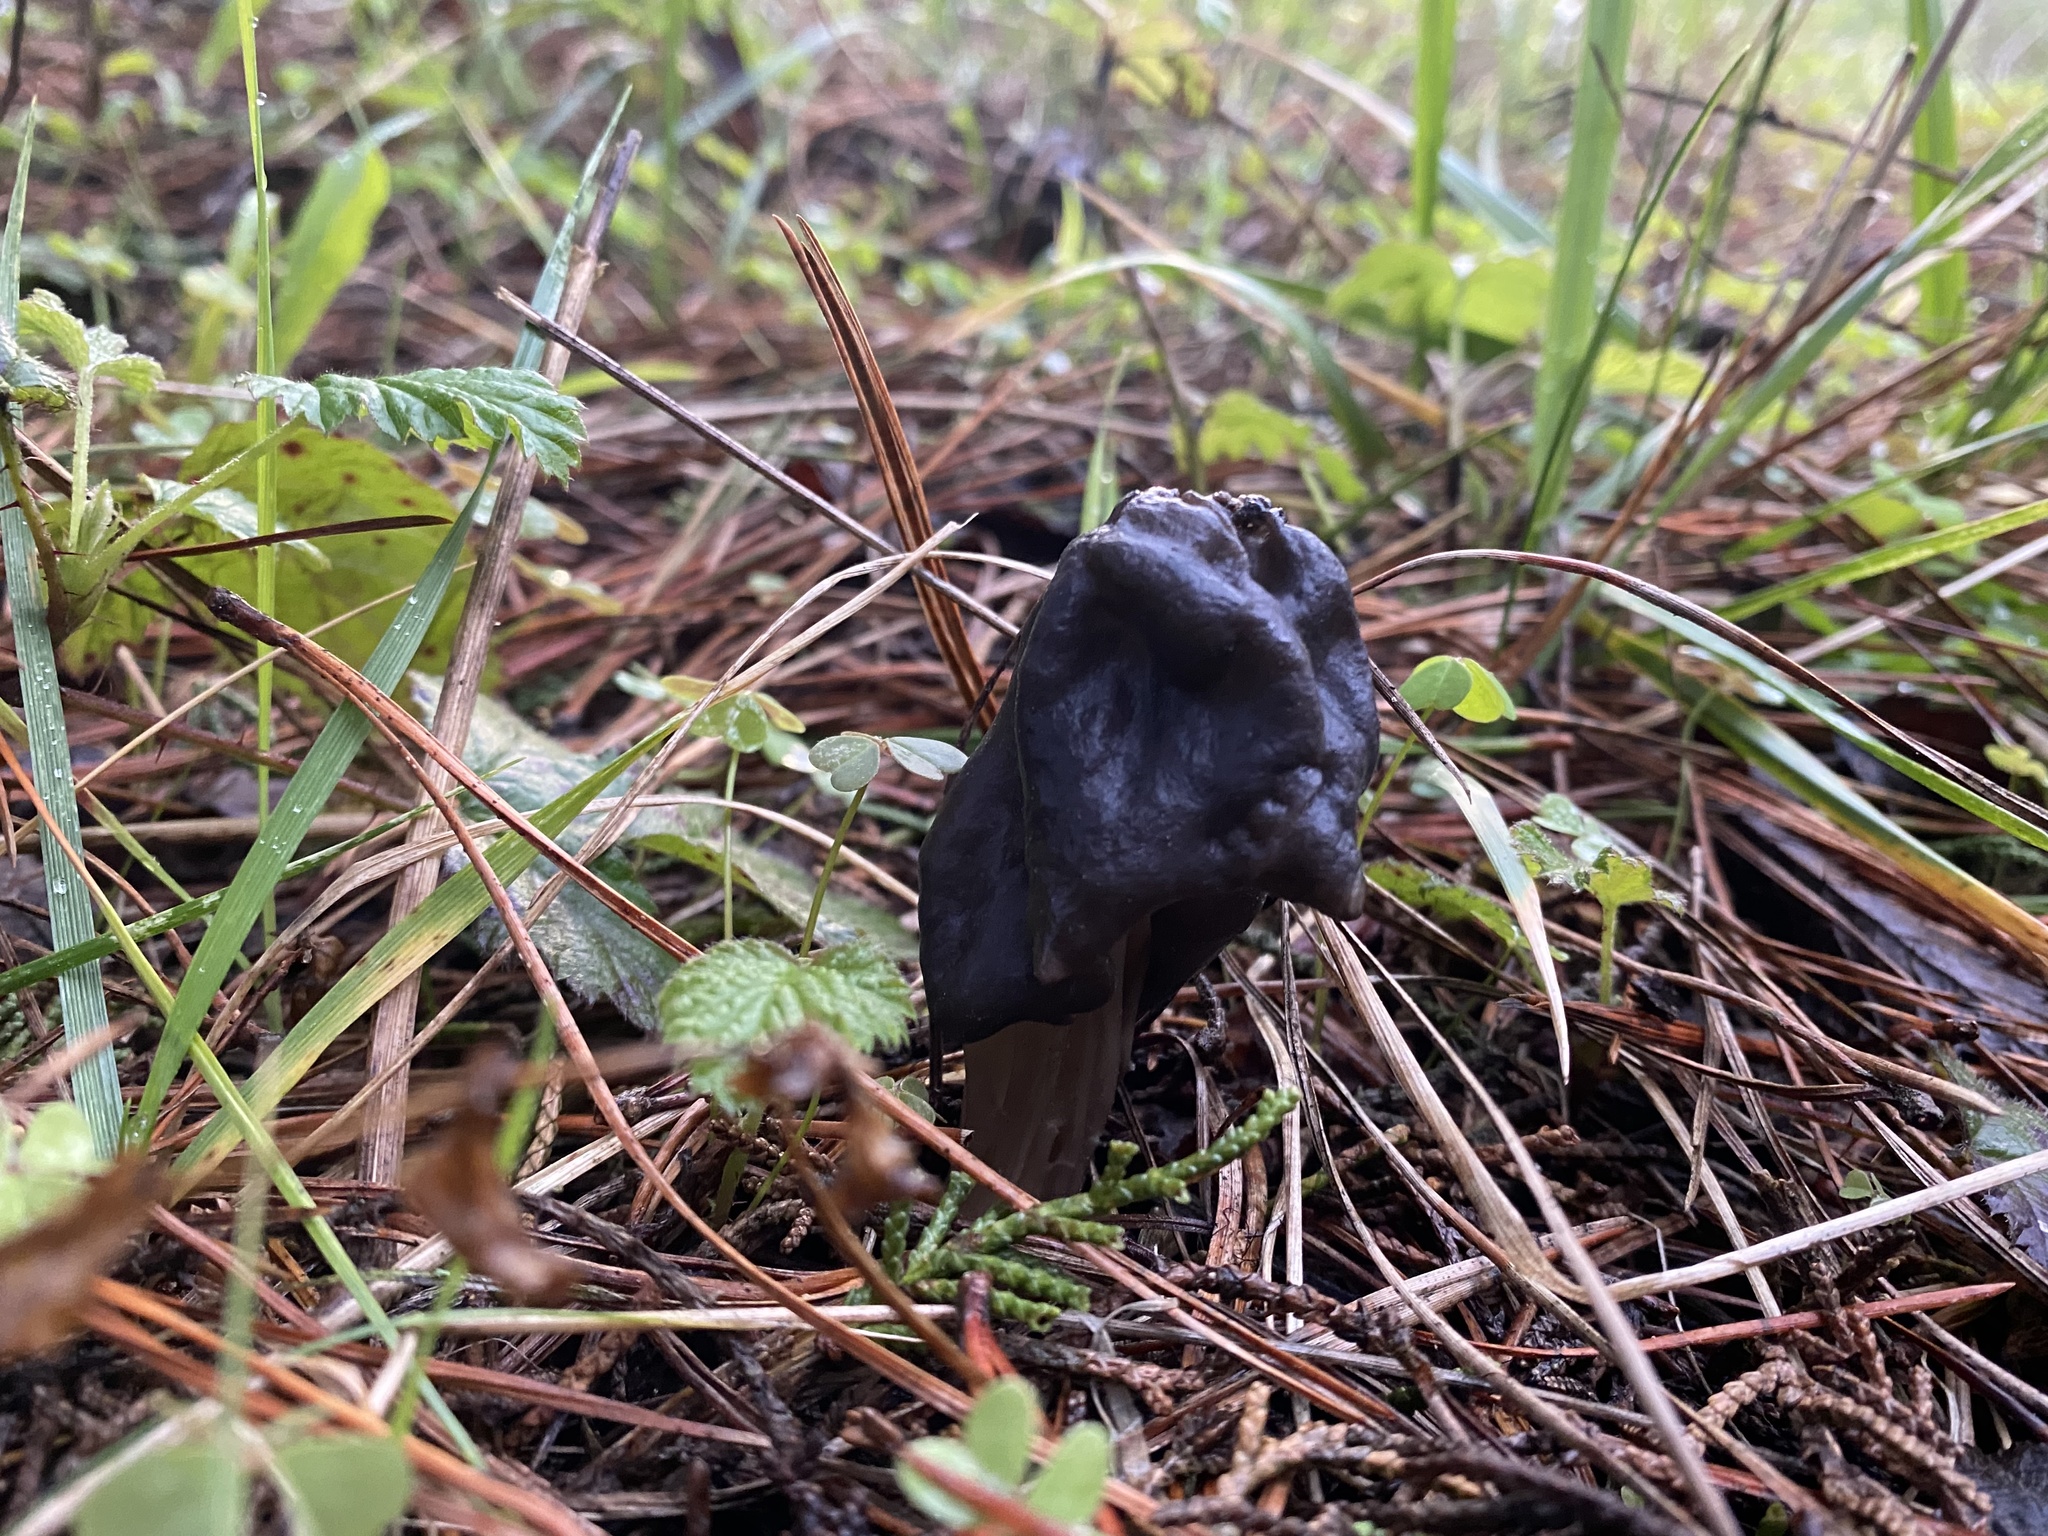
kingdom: Fungi
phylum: Ascomycota
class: Pezizomycetes
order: Pezizales
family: Helvellaceae
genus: Helvella
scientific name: Helvella vespertina
